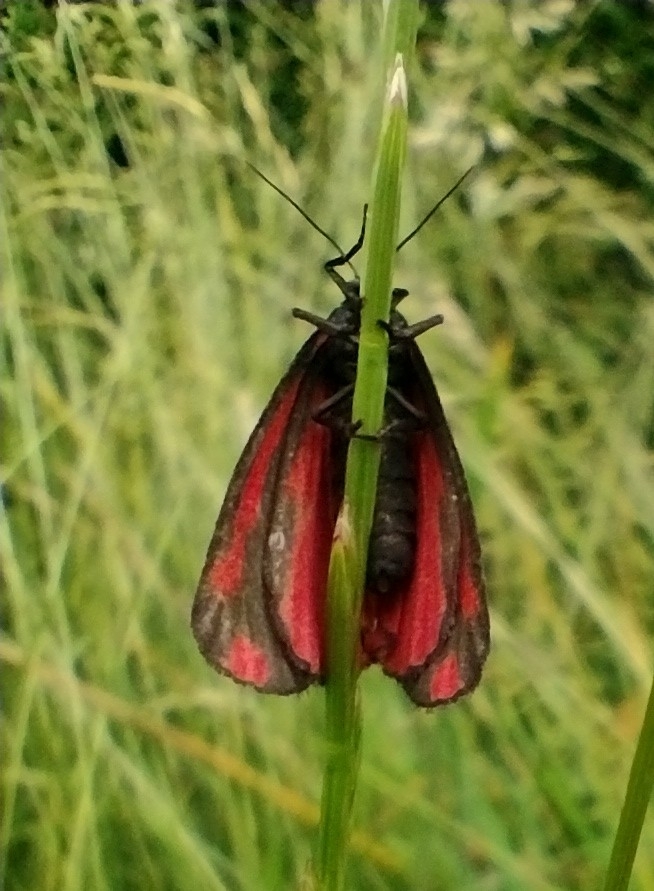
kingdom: Animalia
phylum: Arthropoda
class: Insecta
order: Lepidoptera
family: Erebidae
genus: Tyria
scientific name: Tyria jacobaeae
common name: Cinnabar
